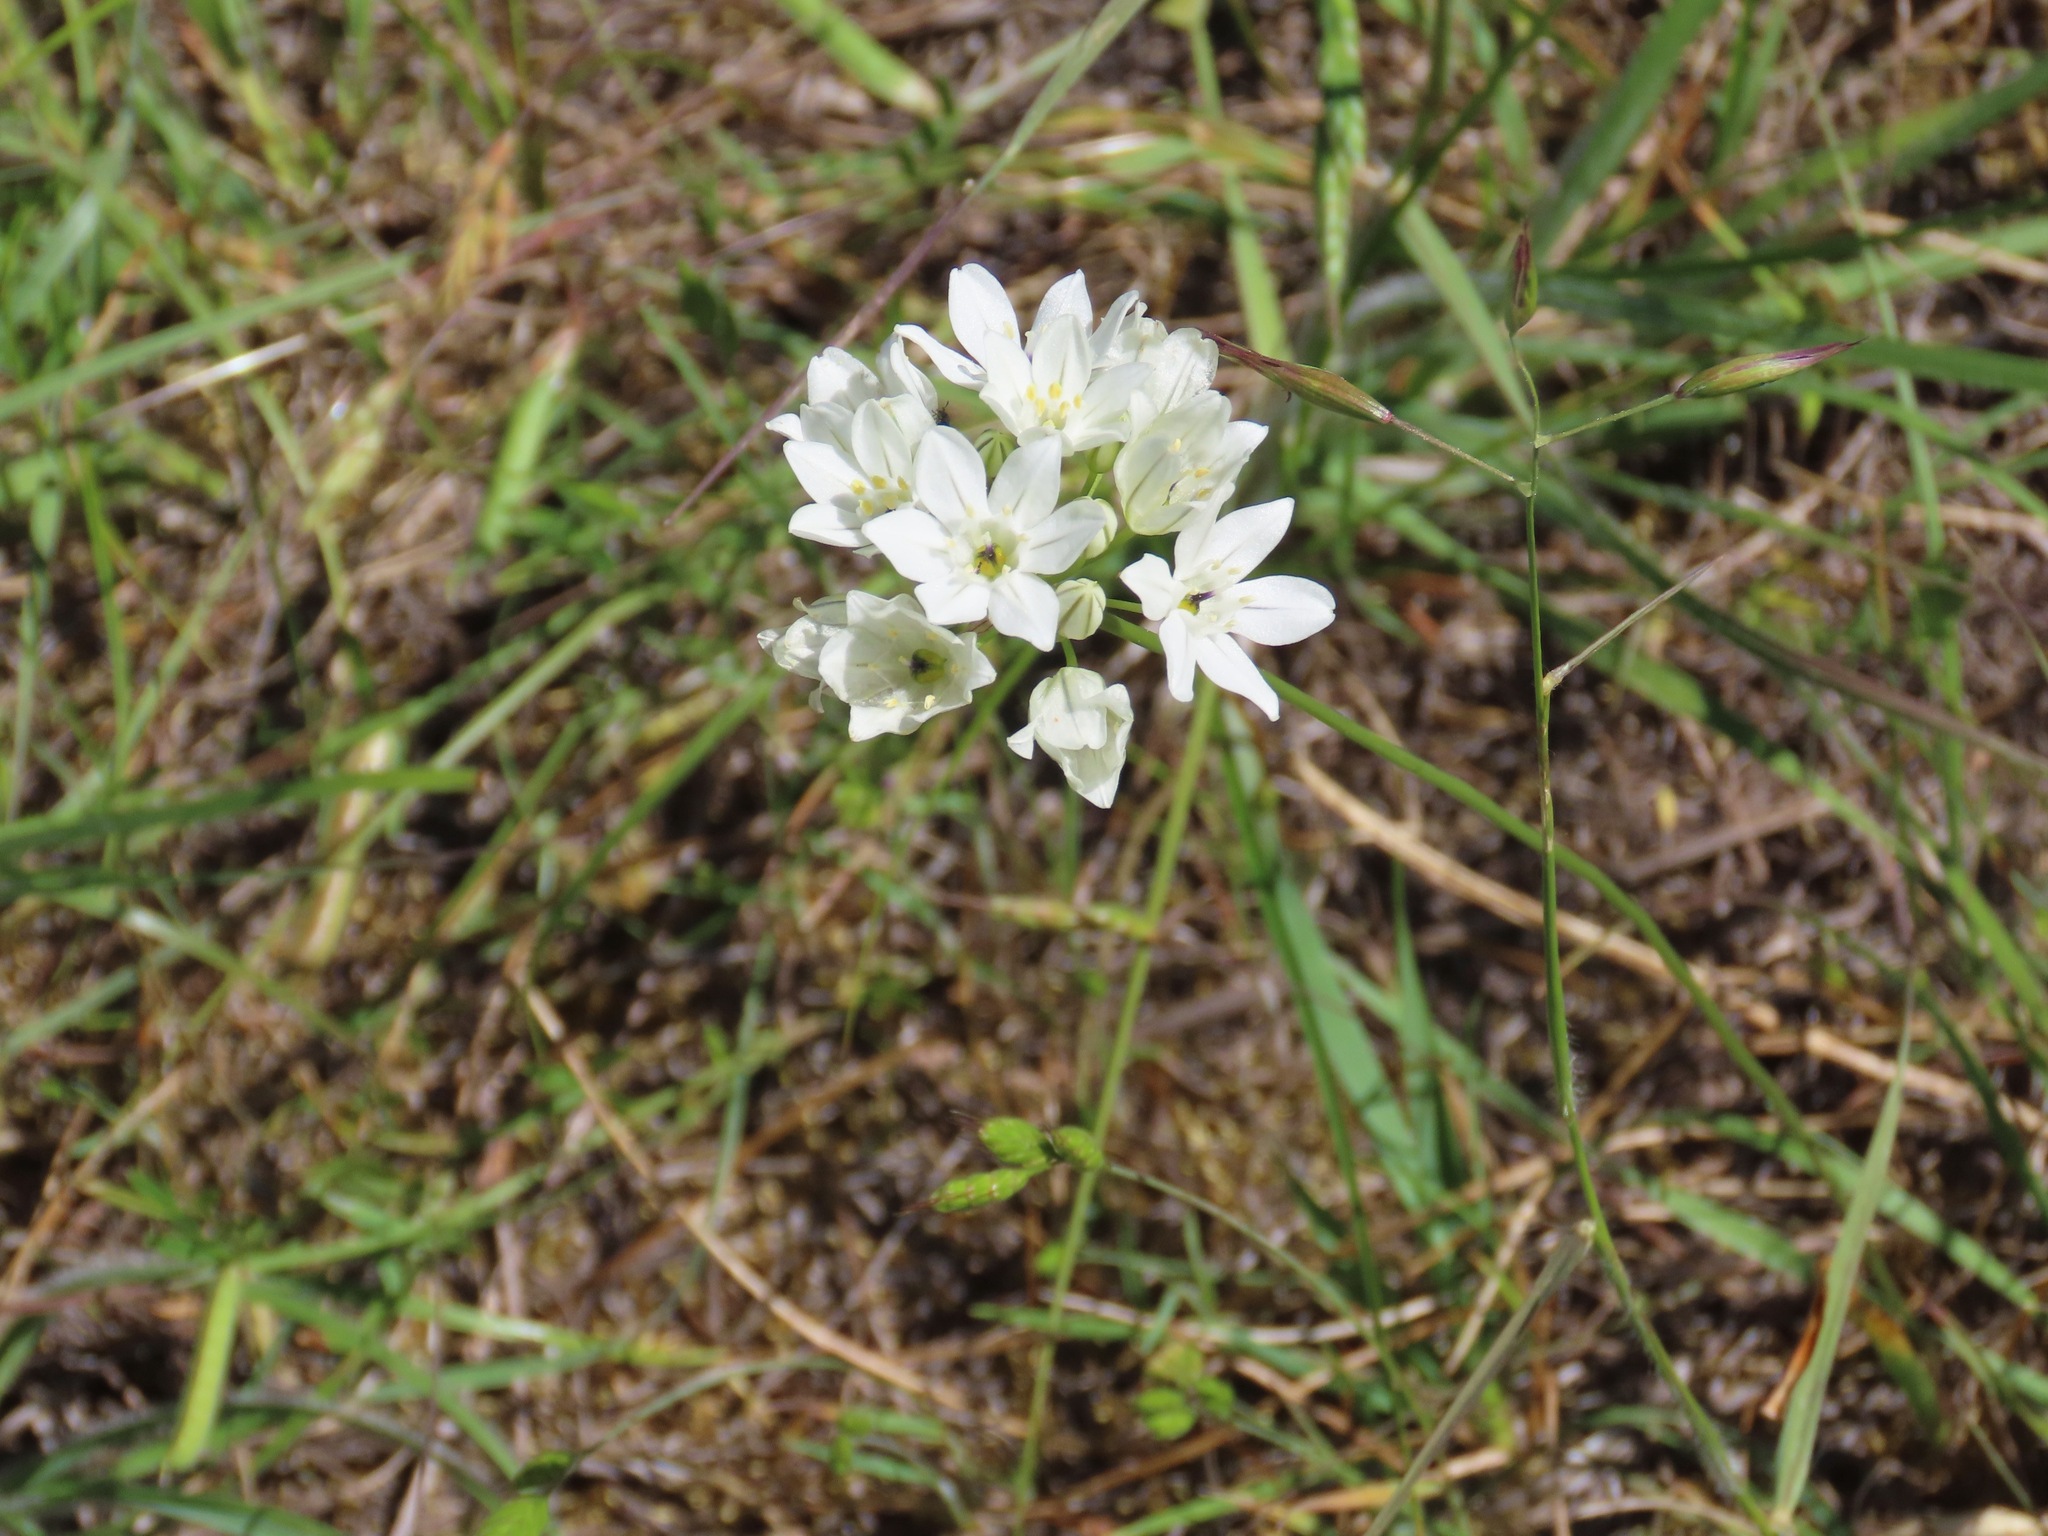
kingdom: Plantae
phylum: Tracheophyta
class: Liliopsida
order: Asparagales
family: Asparagaceae
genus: Triteleia
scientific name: Triteleia hyacinthina
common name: White brodiaea
